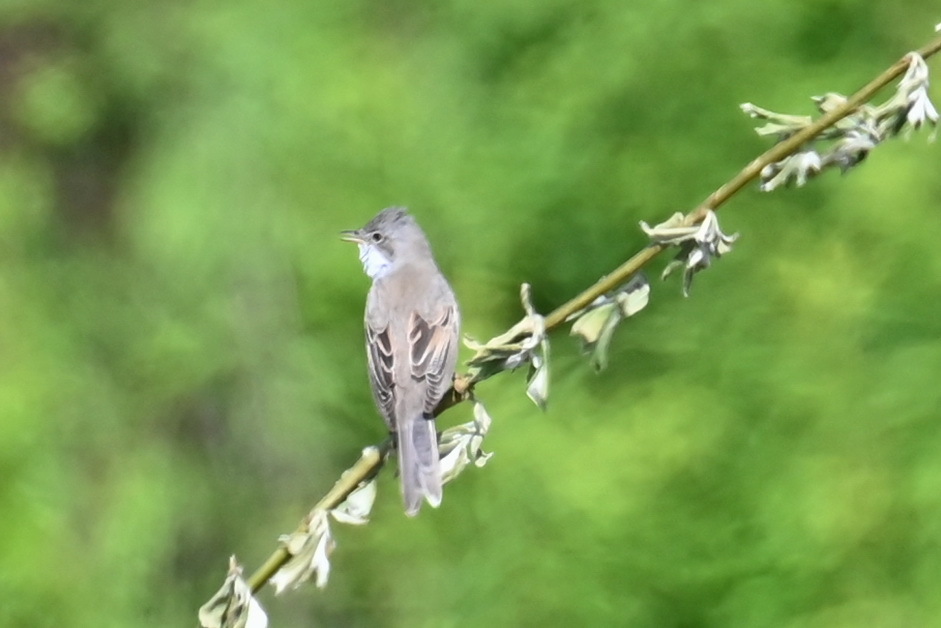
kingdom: Animalia
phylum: Chordata
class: Aves
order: Passeriformes
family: Sylviidae
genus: Sylvia
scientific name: Sylvia communis
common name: Common whitethroat
